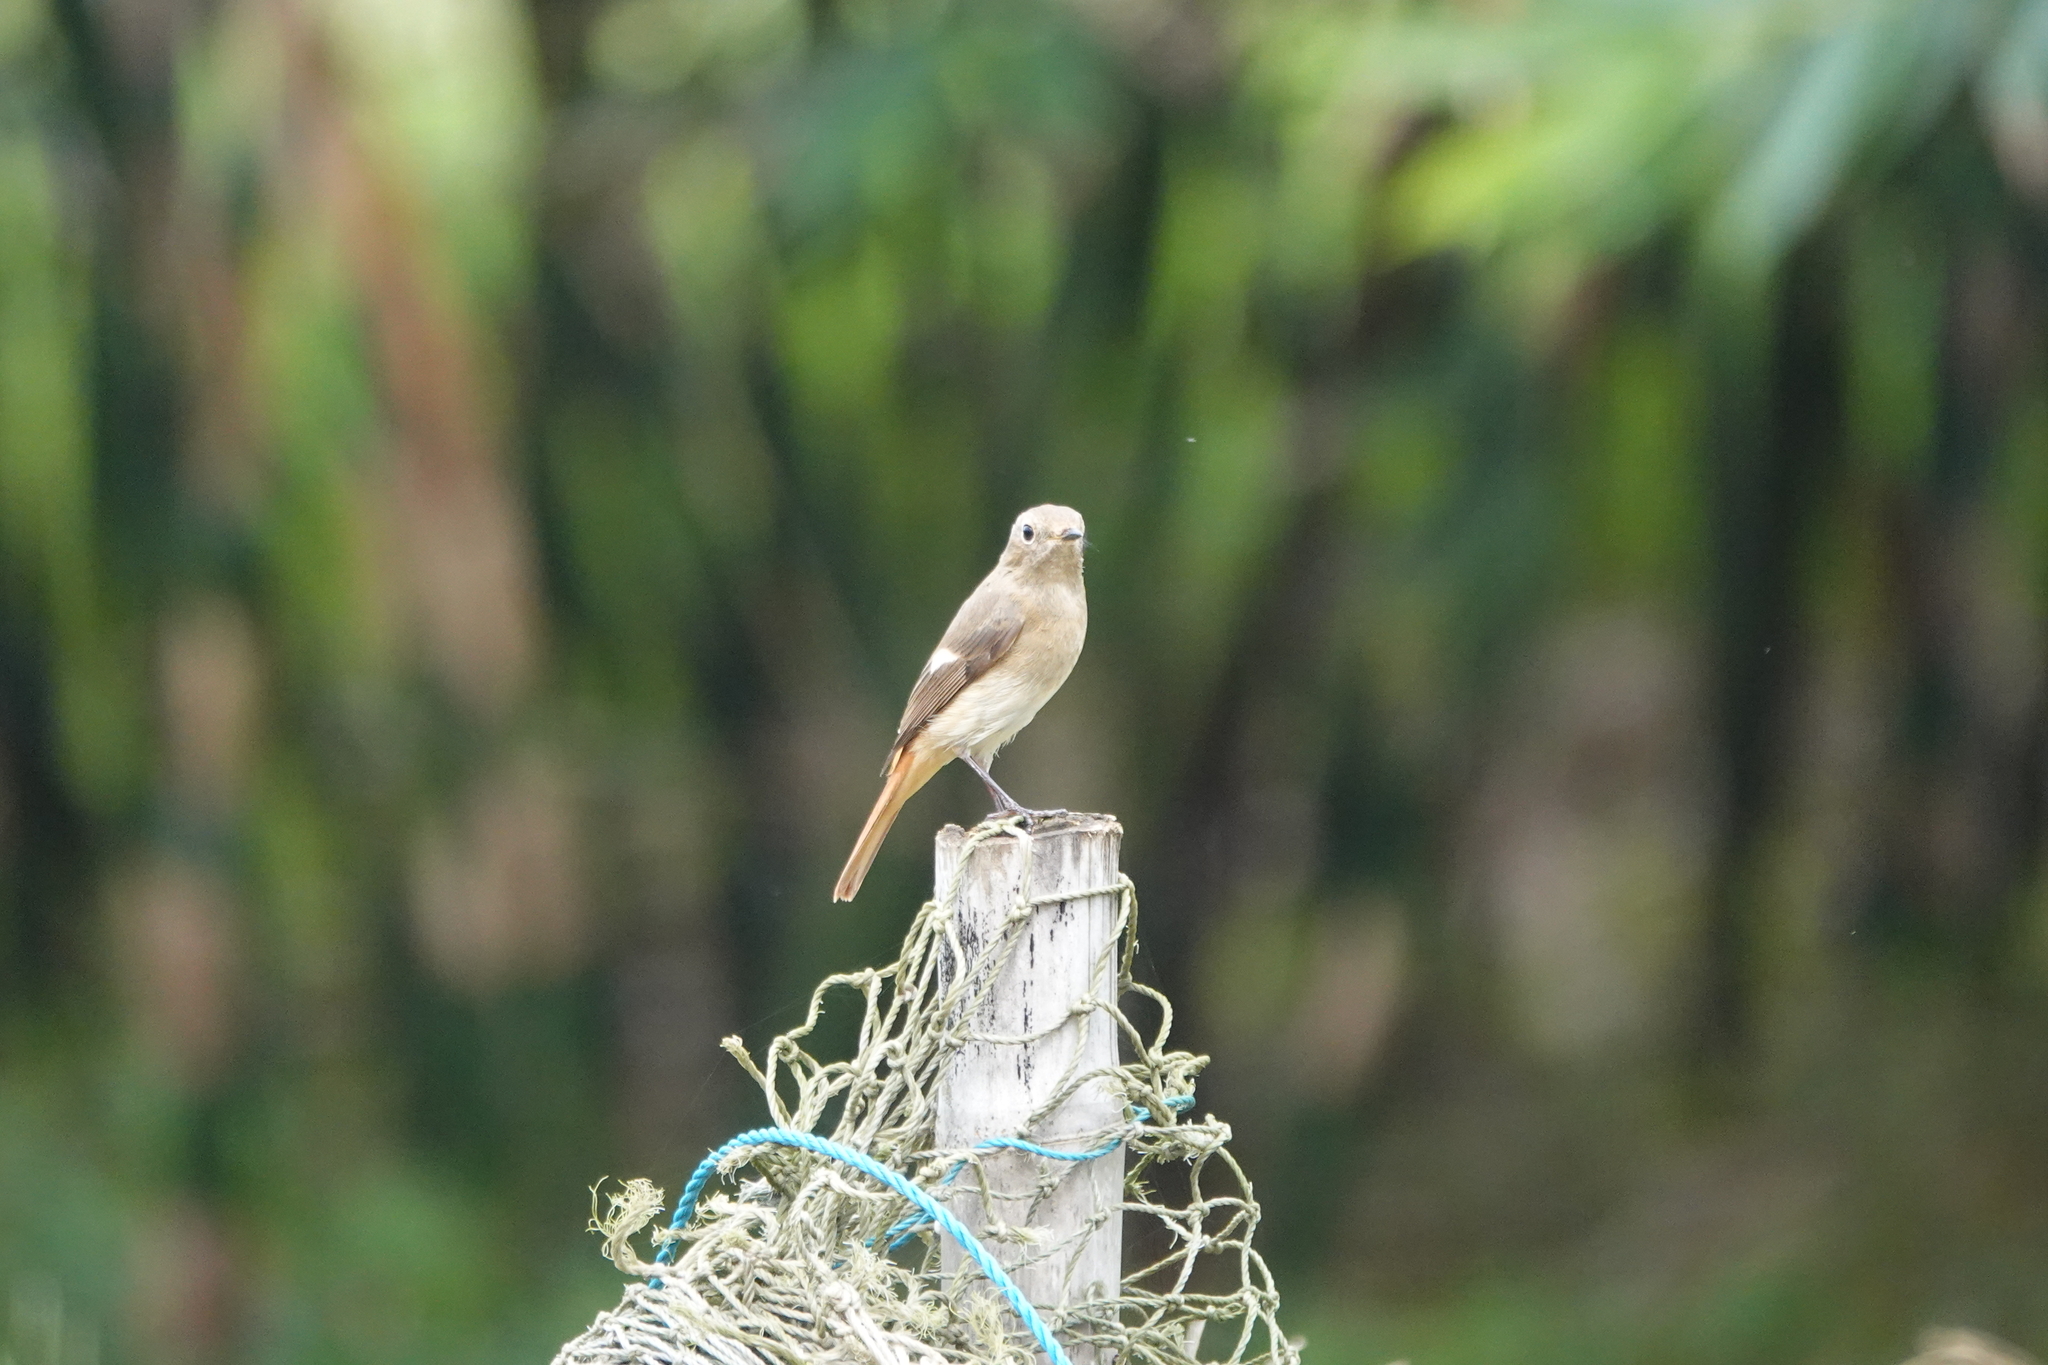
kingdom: Animalia
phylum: Chordata
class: Aves
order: Passeriformes
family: Muscicapidae
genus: Phoenicurus
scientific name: Phoenicurus auroreus
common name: Daurian redstart
